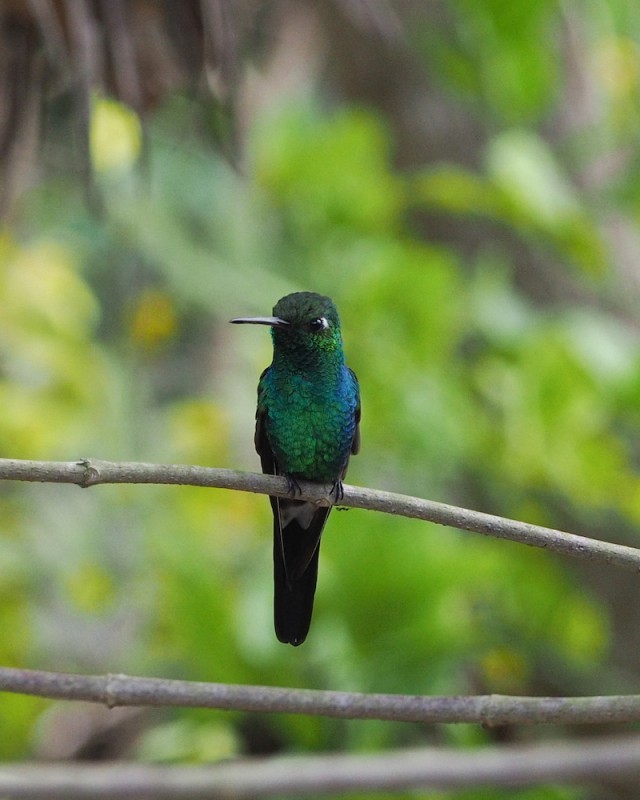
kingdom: Animalia
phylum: Chordata
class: Aves
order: Apodiformes
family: Trochilidae
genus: Riccordia
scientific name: Riccordia ricordii
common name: Cuban emerald
